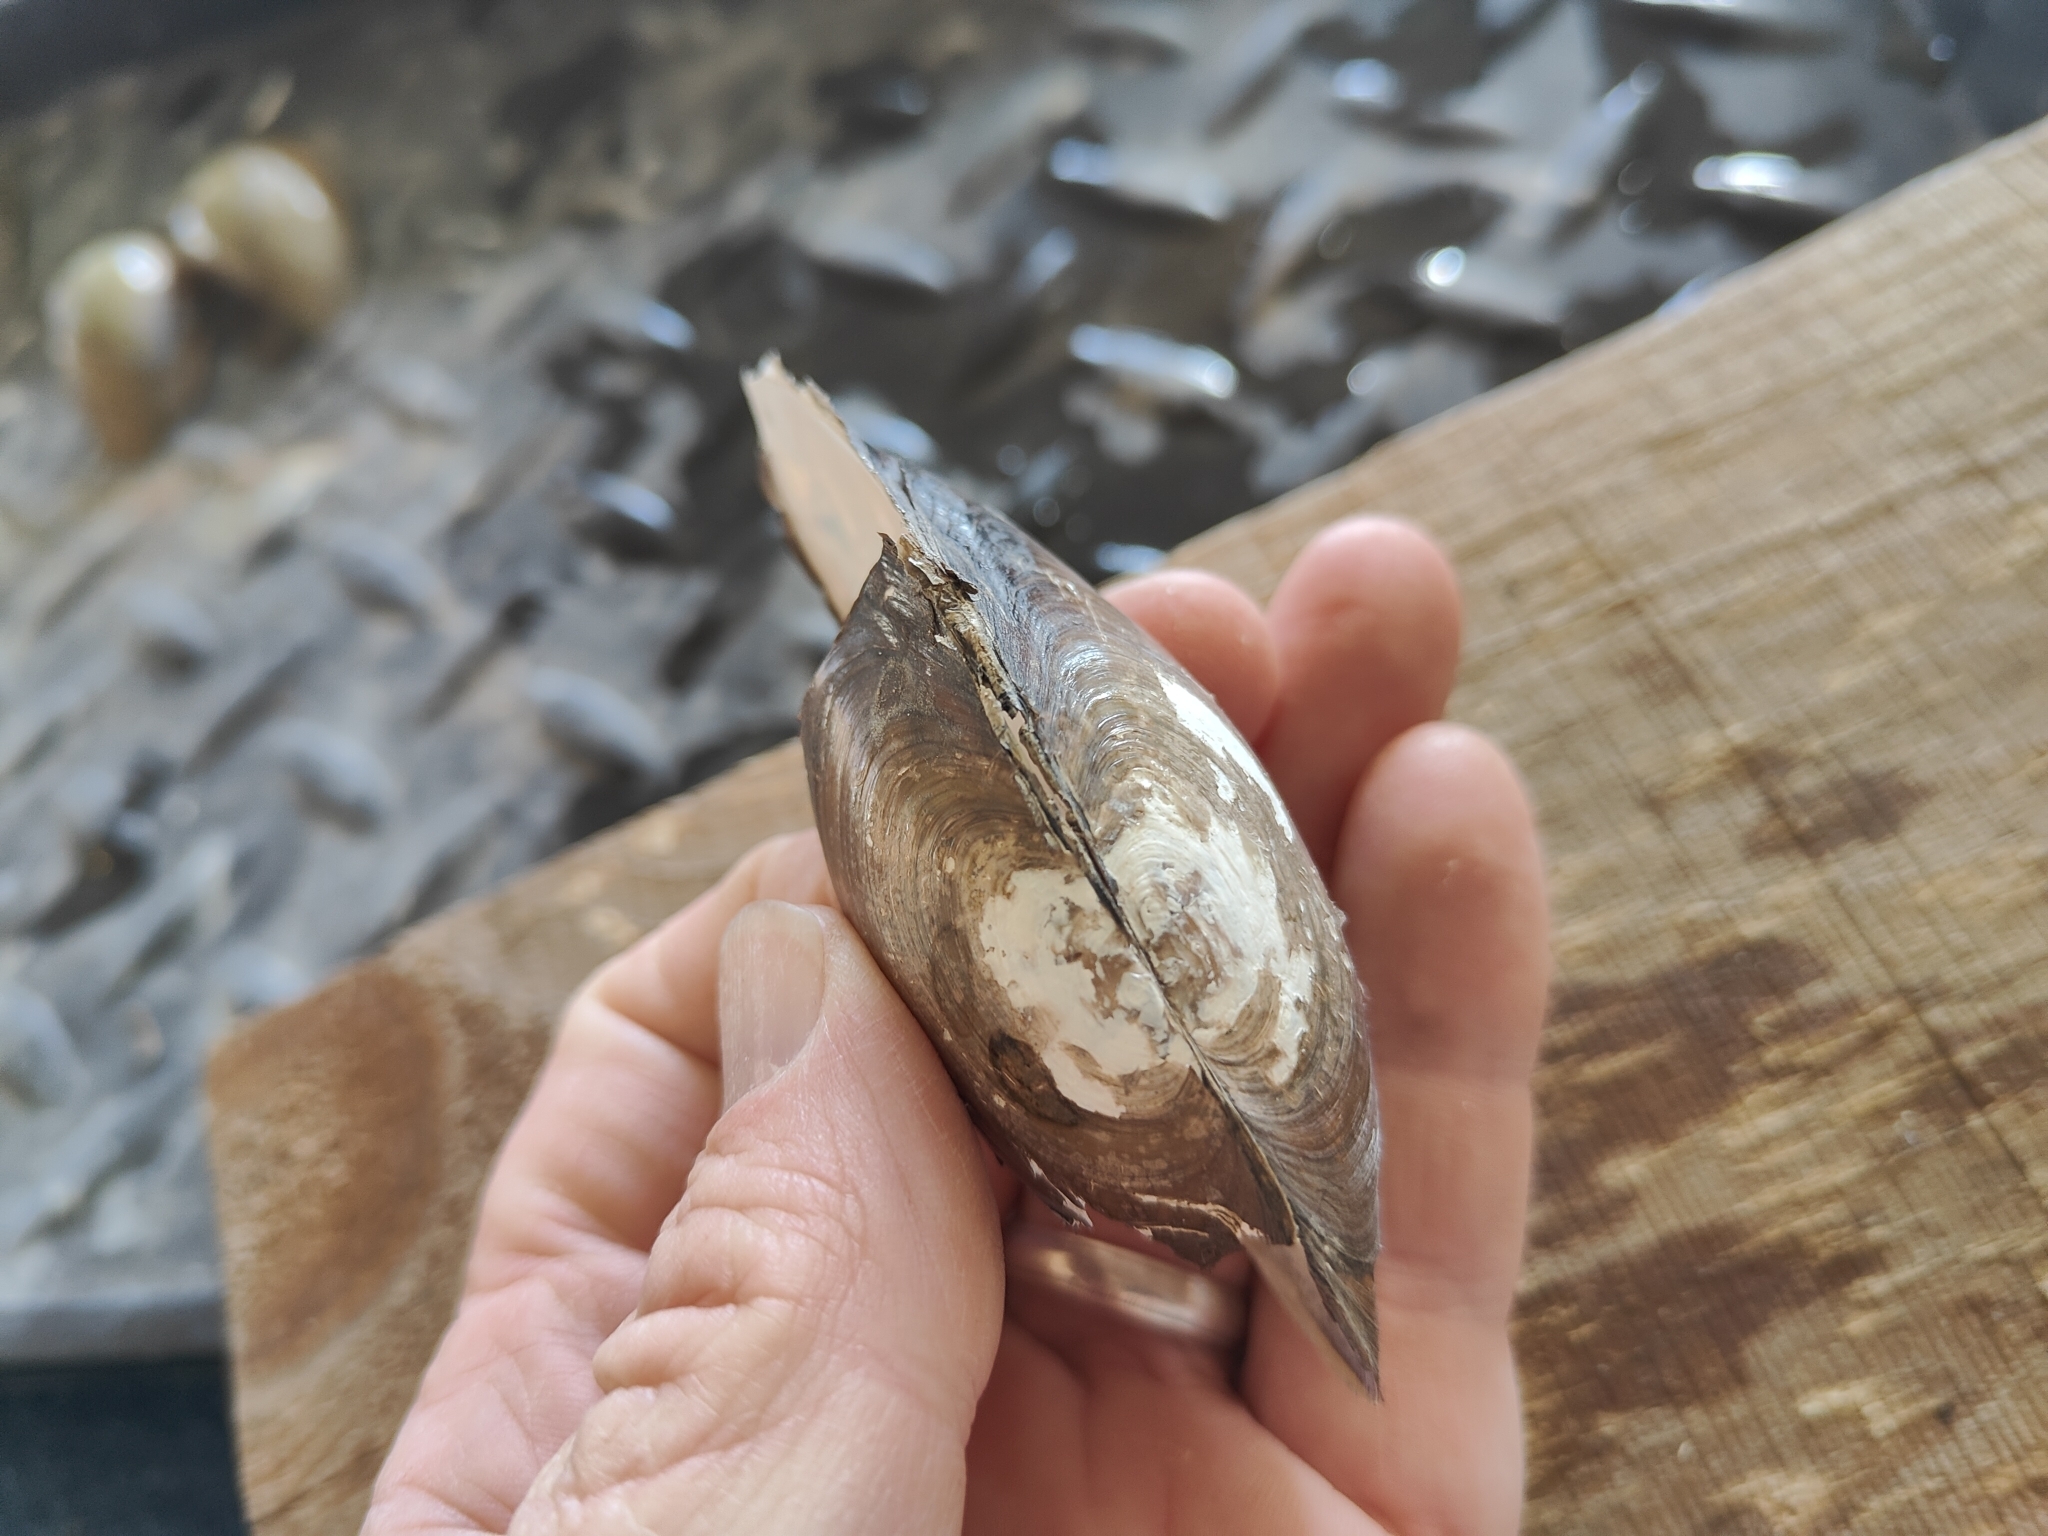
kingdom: Animalia
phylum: Mollusca
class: Bivalvia
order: Unionida
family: Unionidae
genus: Utterbackia
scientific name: Utterbackia imbecillis
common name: Paper pondshell
